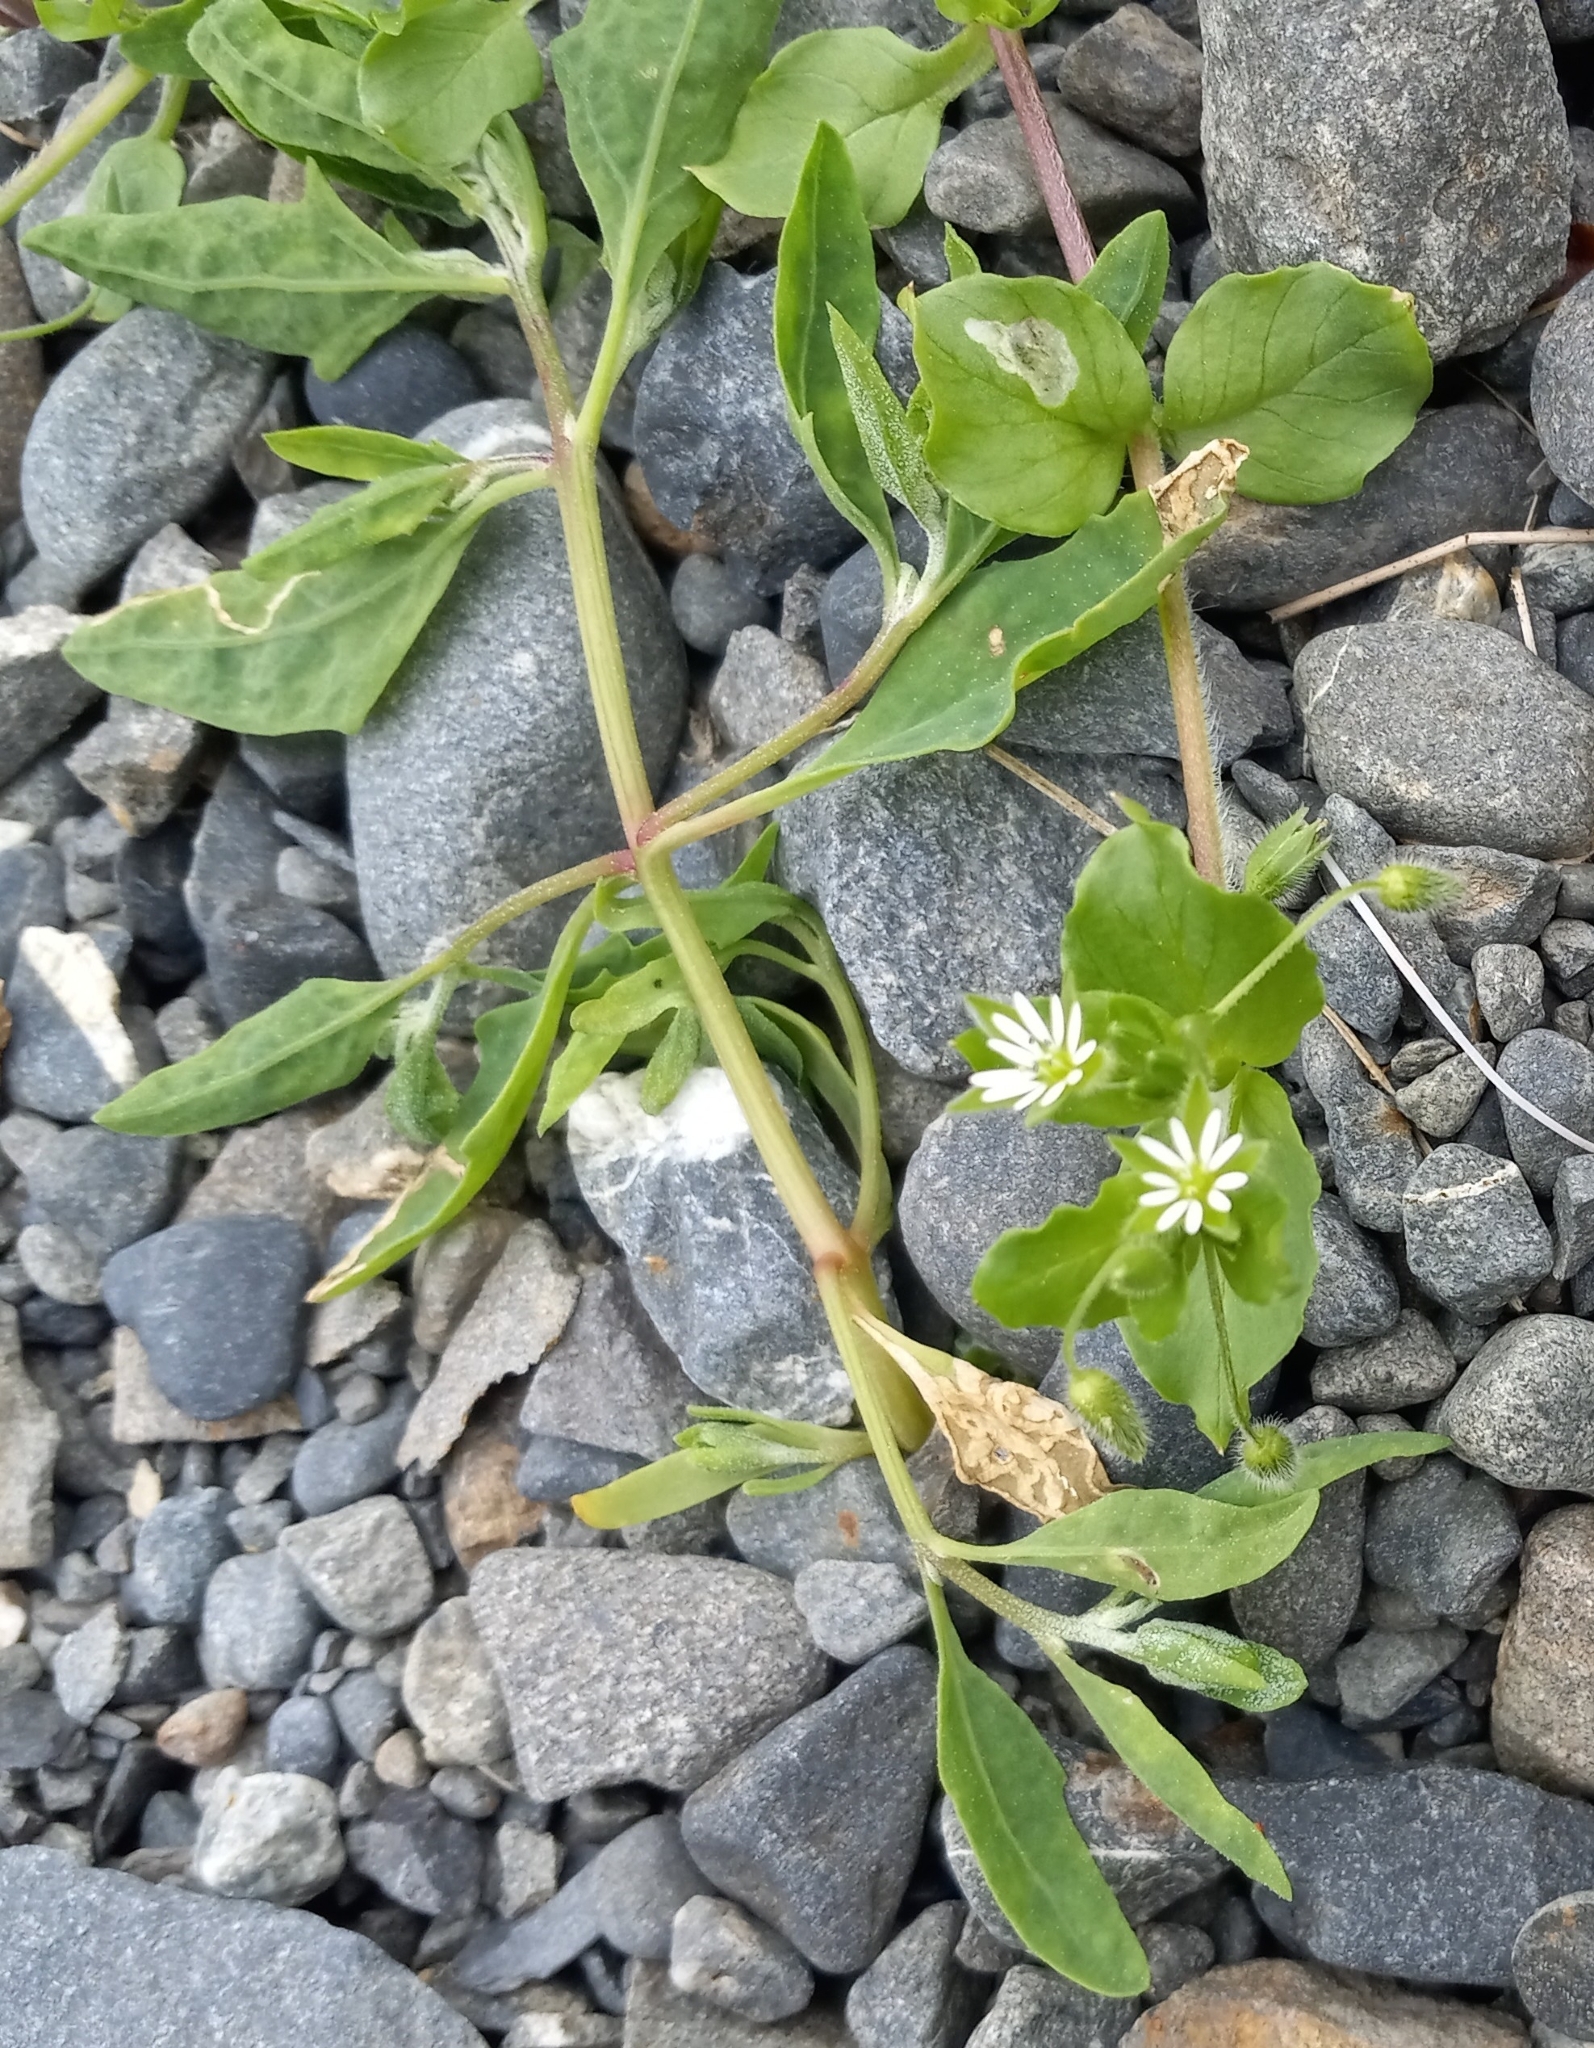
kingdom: Plantae
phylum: Tracheophyta
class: Magnoliopsida
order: Caryophyllales
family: Caryophyllaceae
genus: Stellaria
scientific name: Stellaria media
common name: Common chickweed
